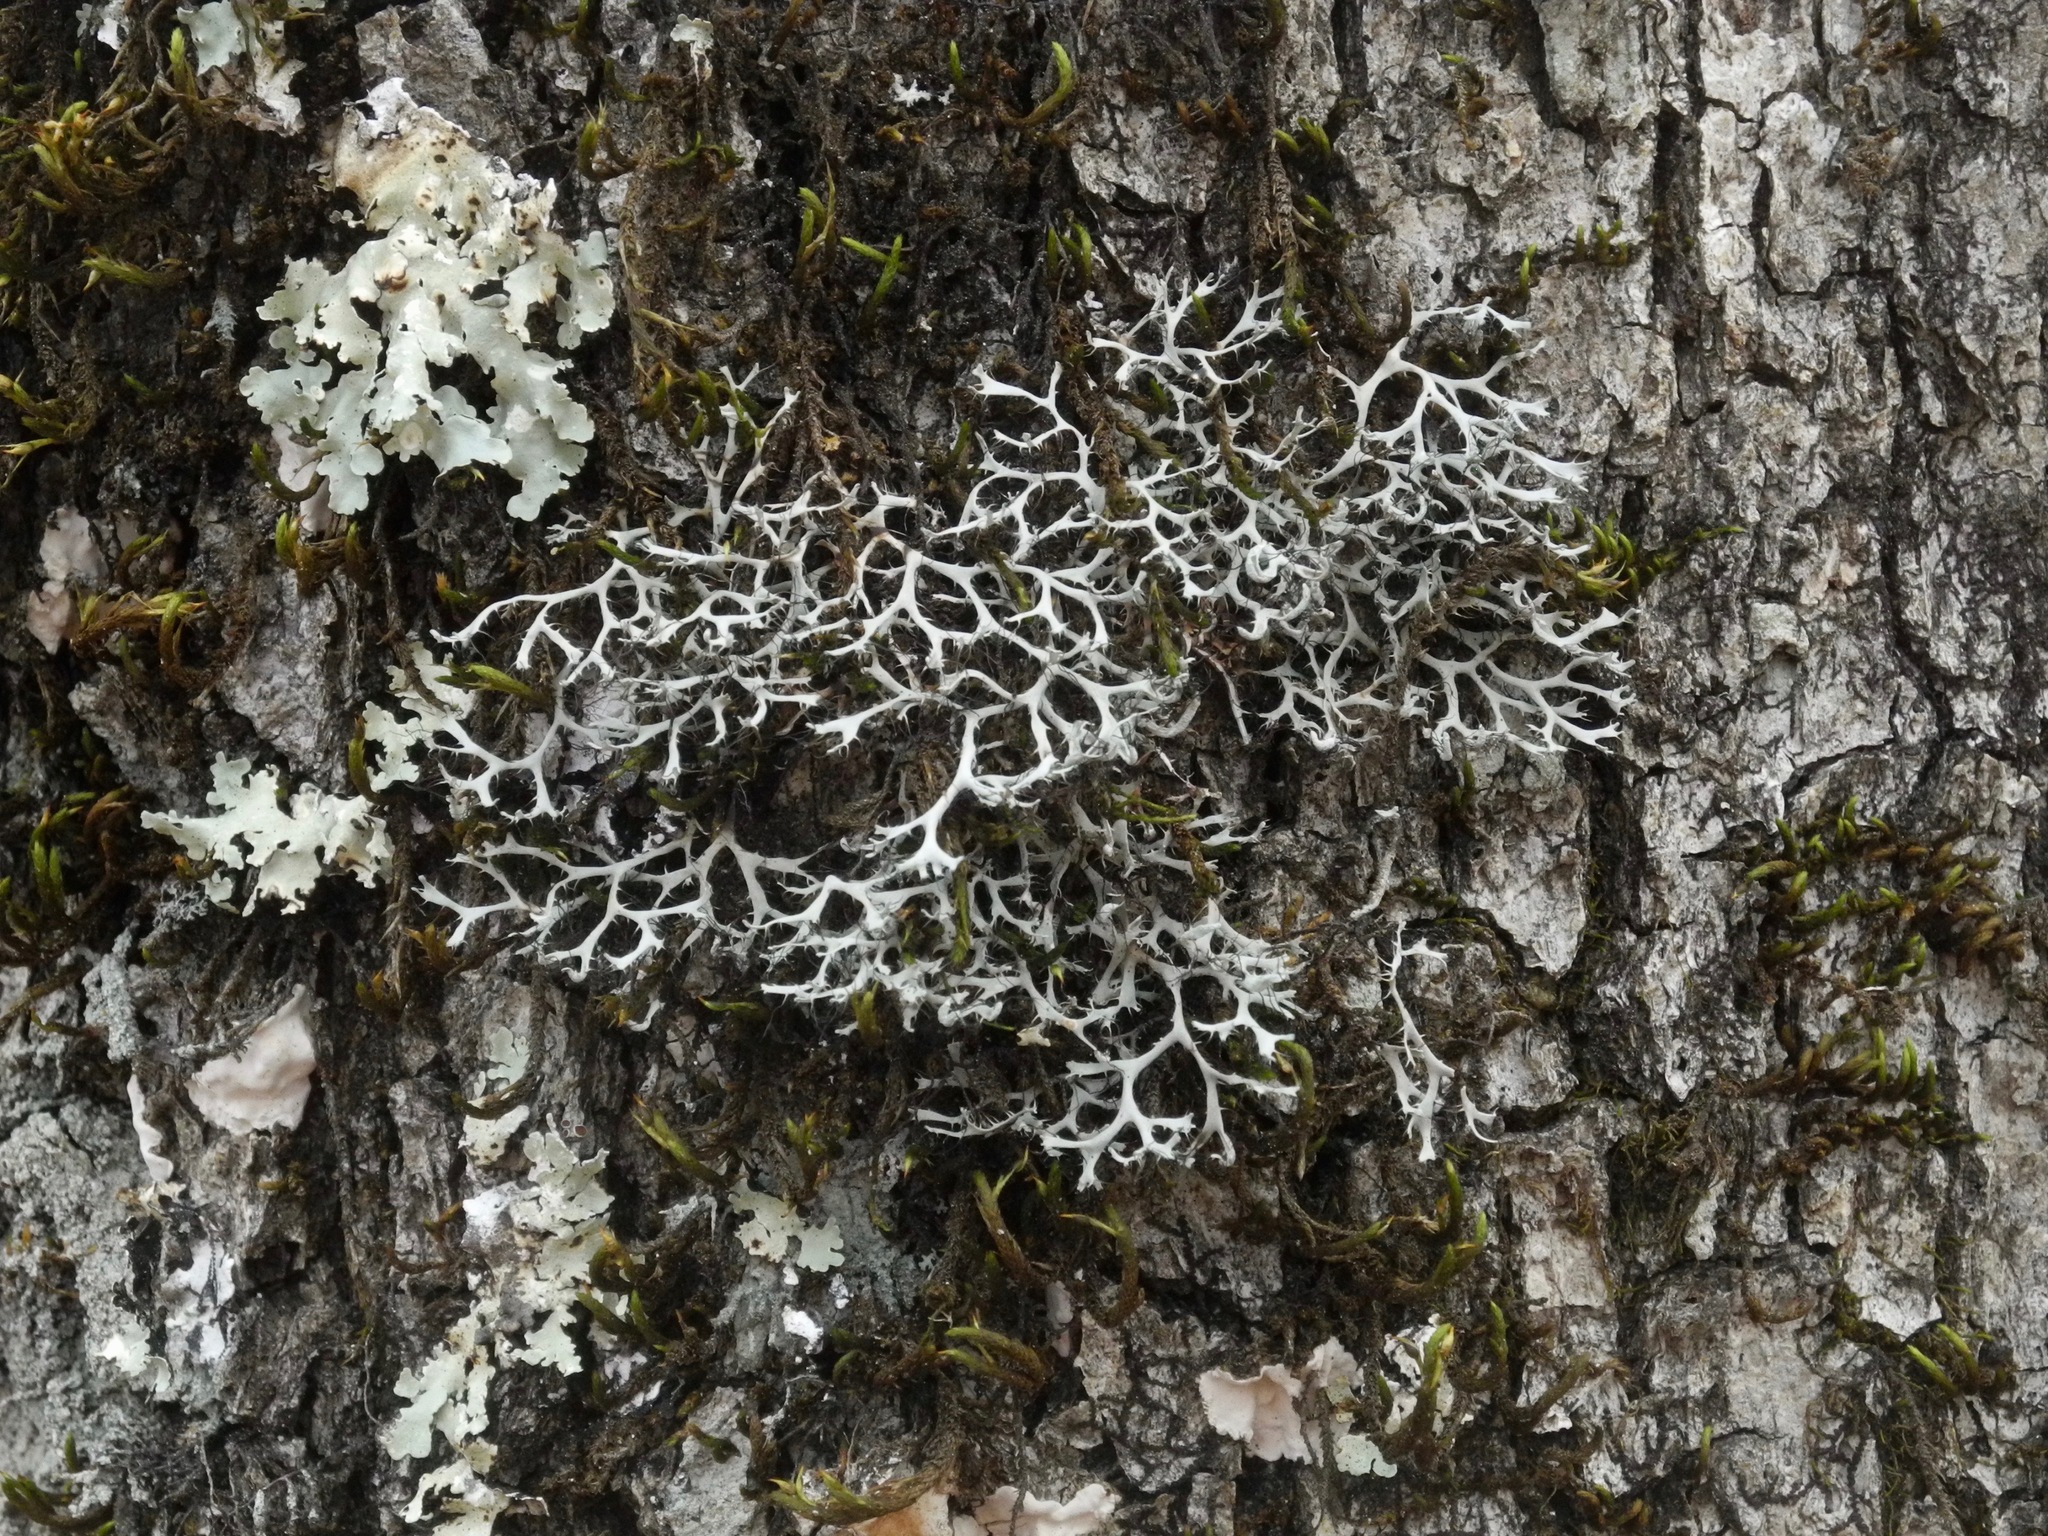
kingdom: Fungi
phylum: Ascomycota
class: Lecanoromycetes
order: Caliciales
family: Physciaceae
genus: Leucodermia
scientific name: Leucodermia leucomelos
